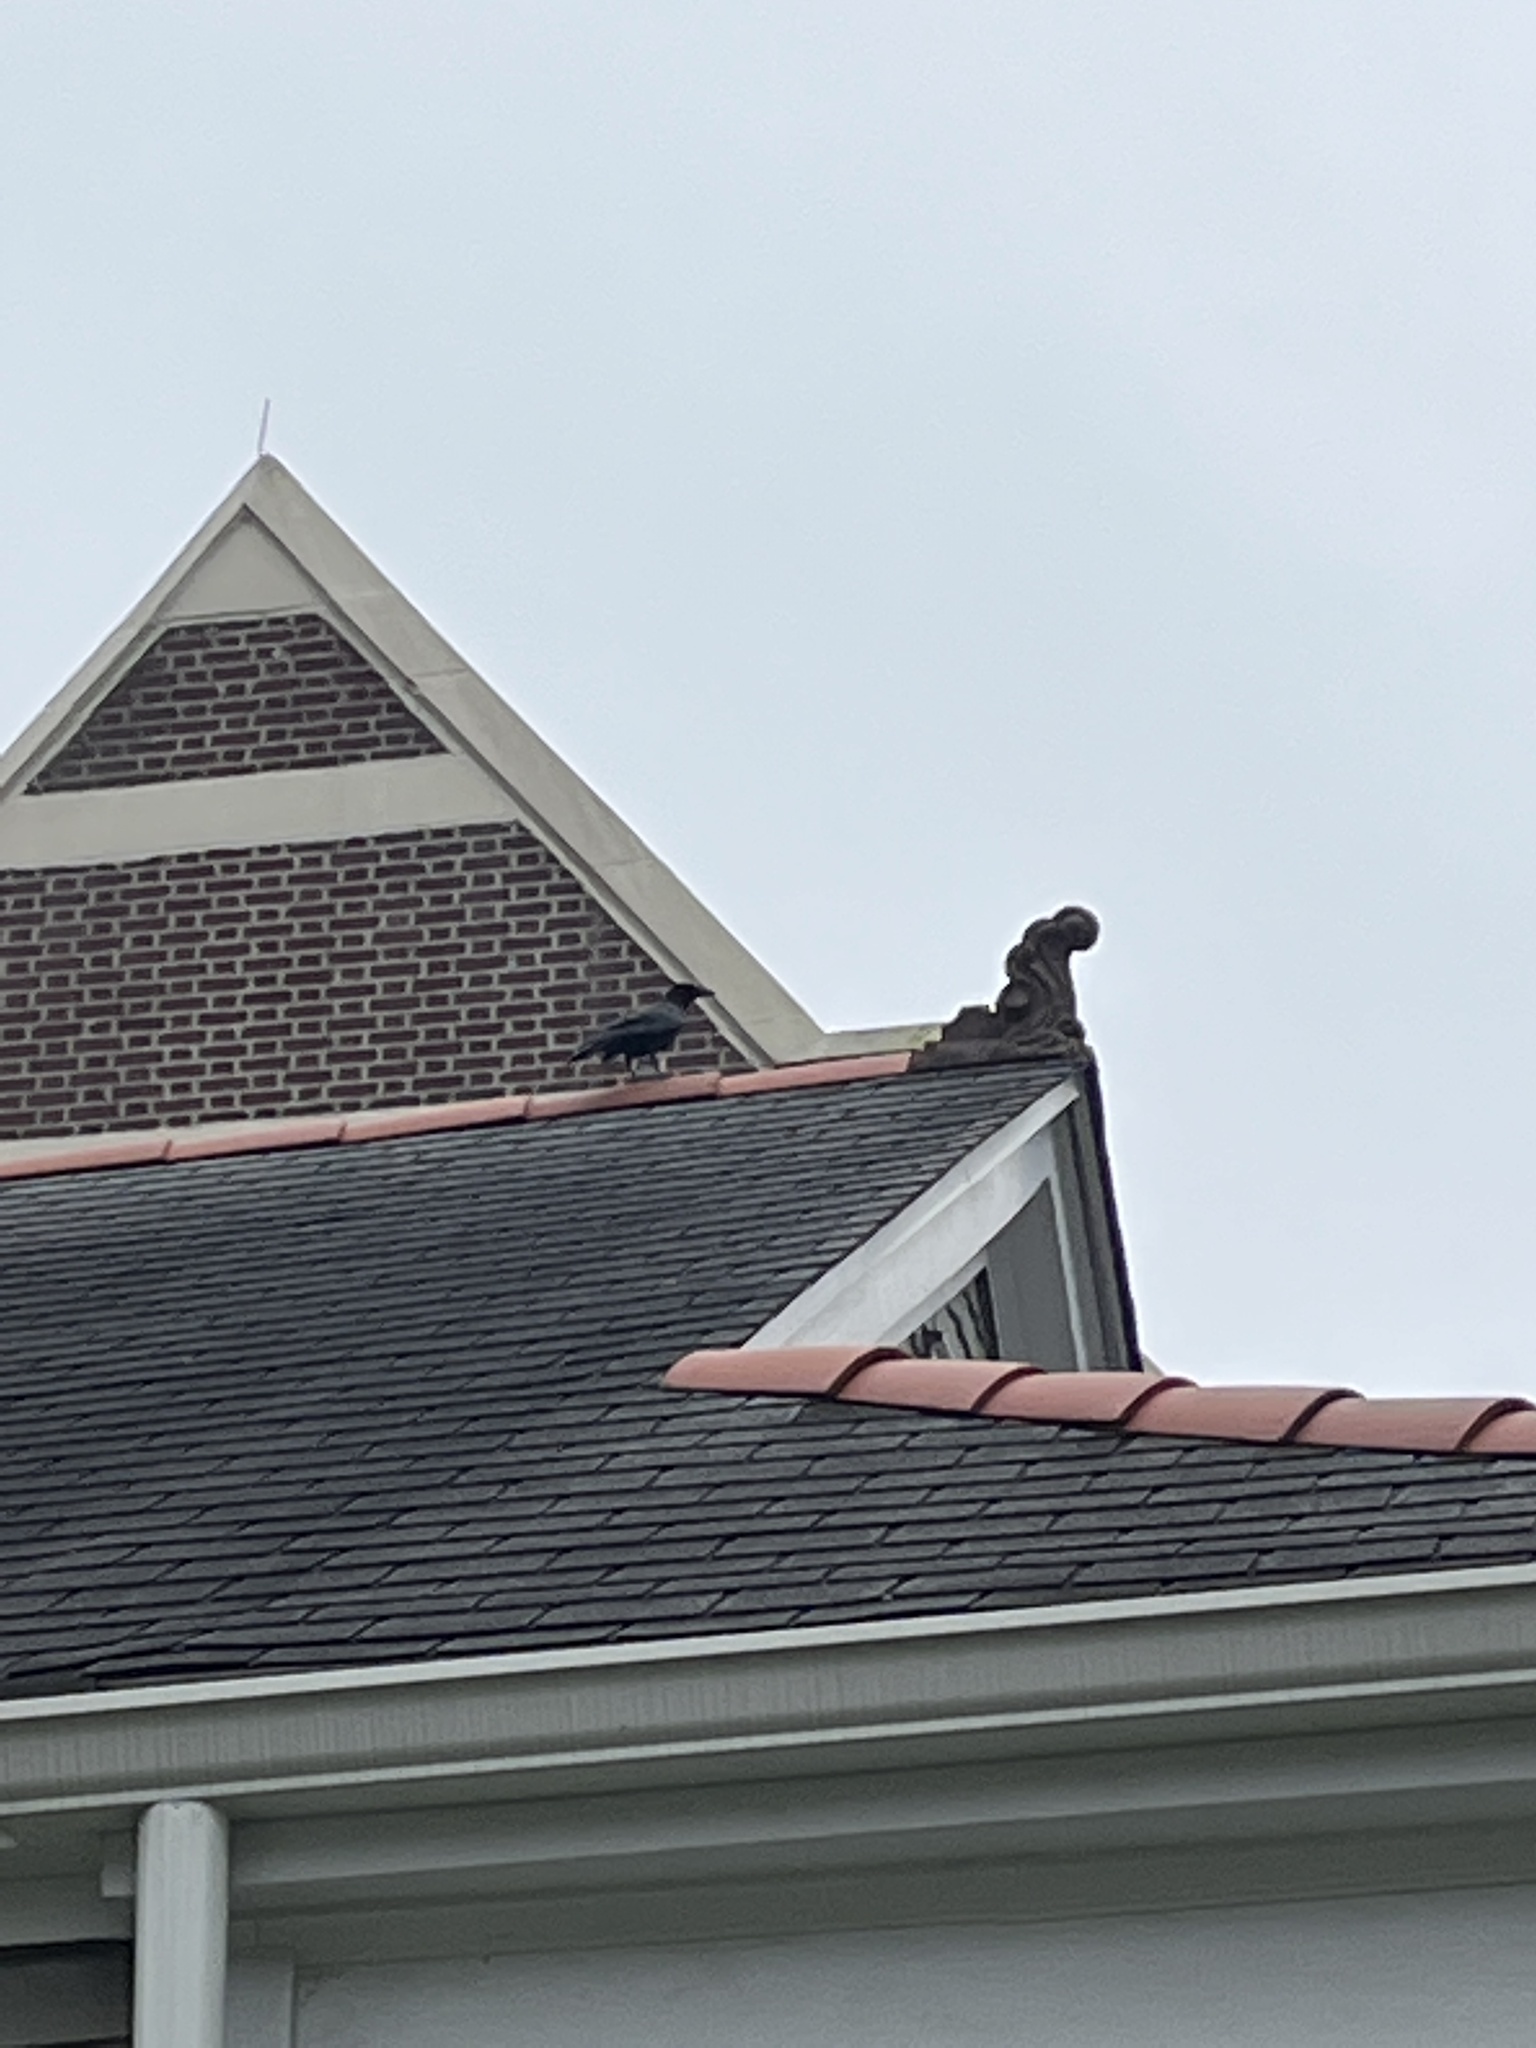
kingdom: Animalia
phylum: Chordata
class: Aves
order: Passeriformes
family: Corvidae
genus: Corvus
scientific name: Corvus brachyrhynchos
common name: American crow
